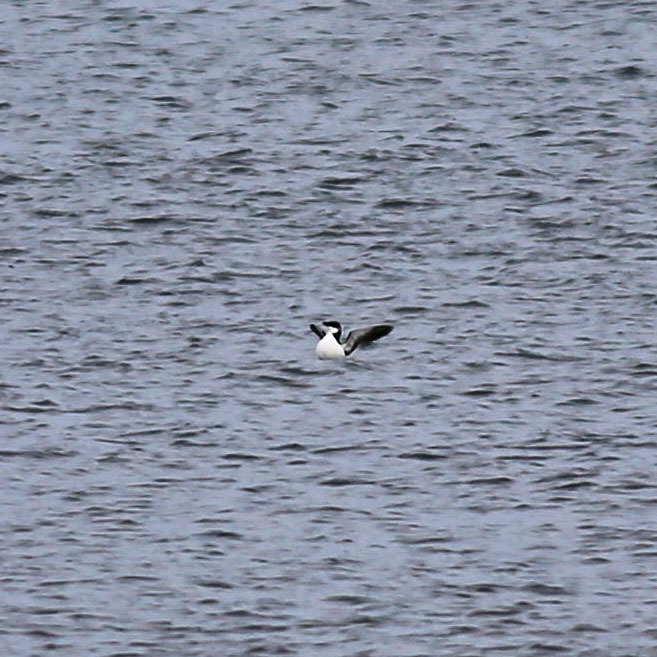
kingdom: Animalia
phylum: Chordata
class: Aves
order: Charadriiformes
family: Alcidae
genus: Alca
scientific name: Alca torda
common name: Razorbill
